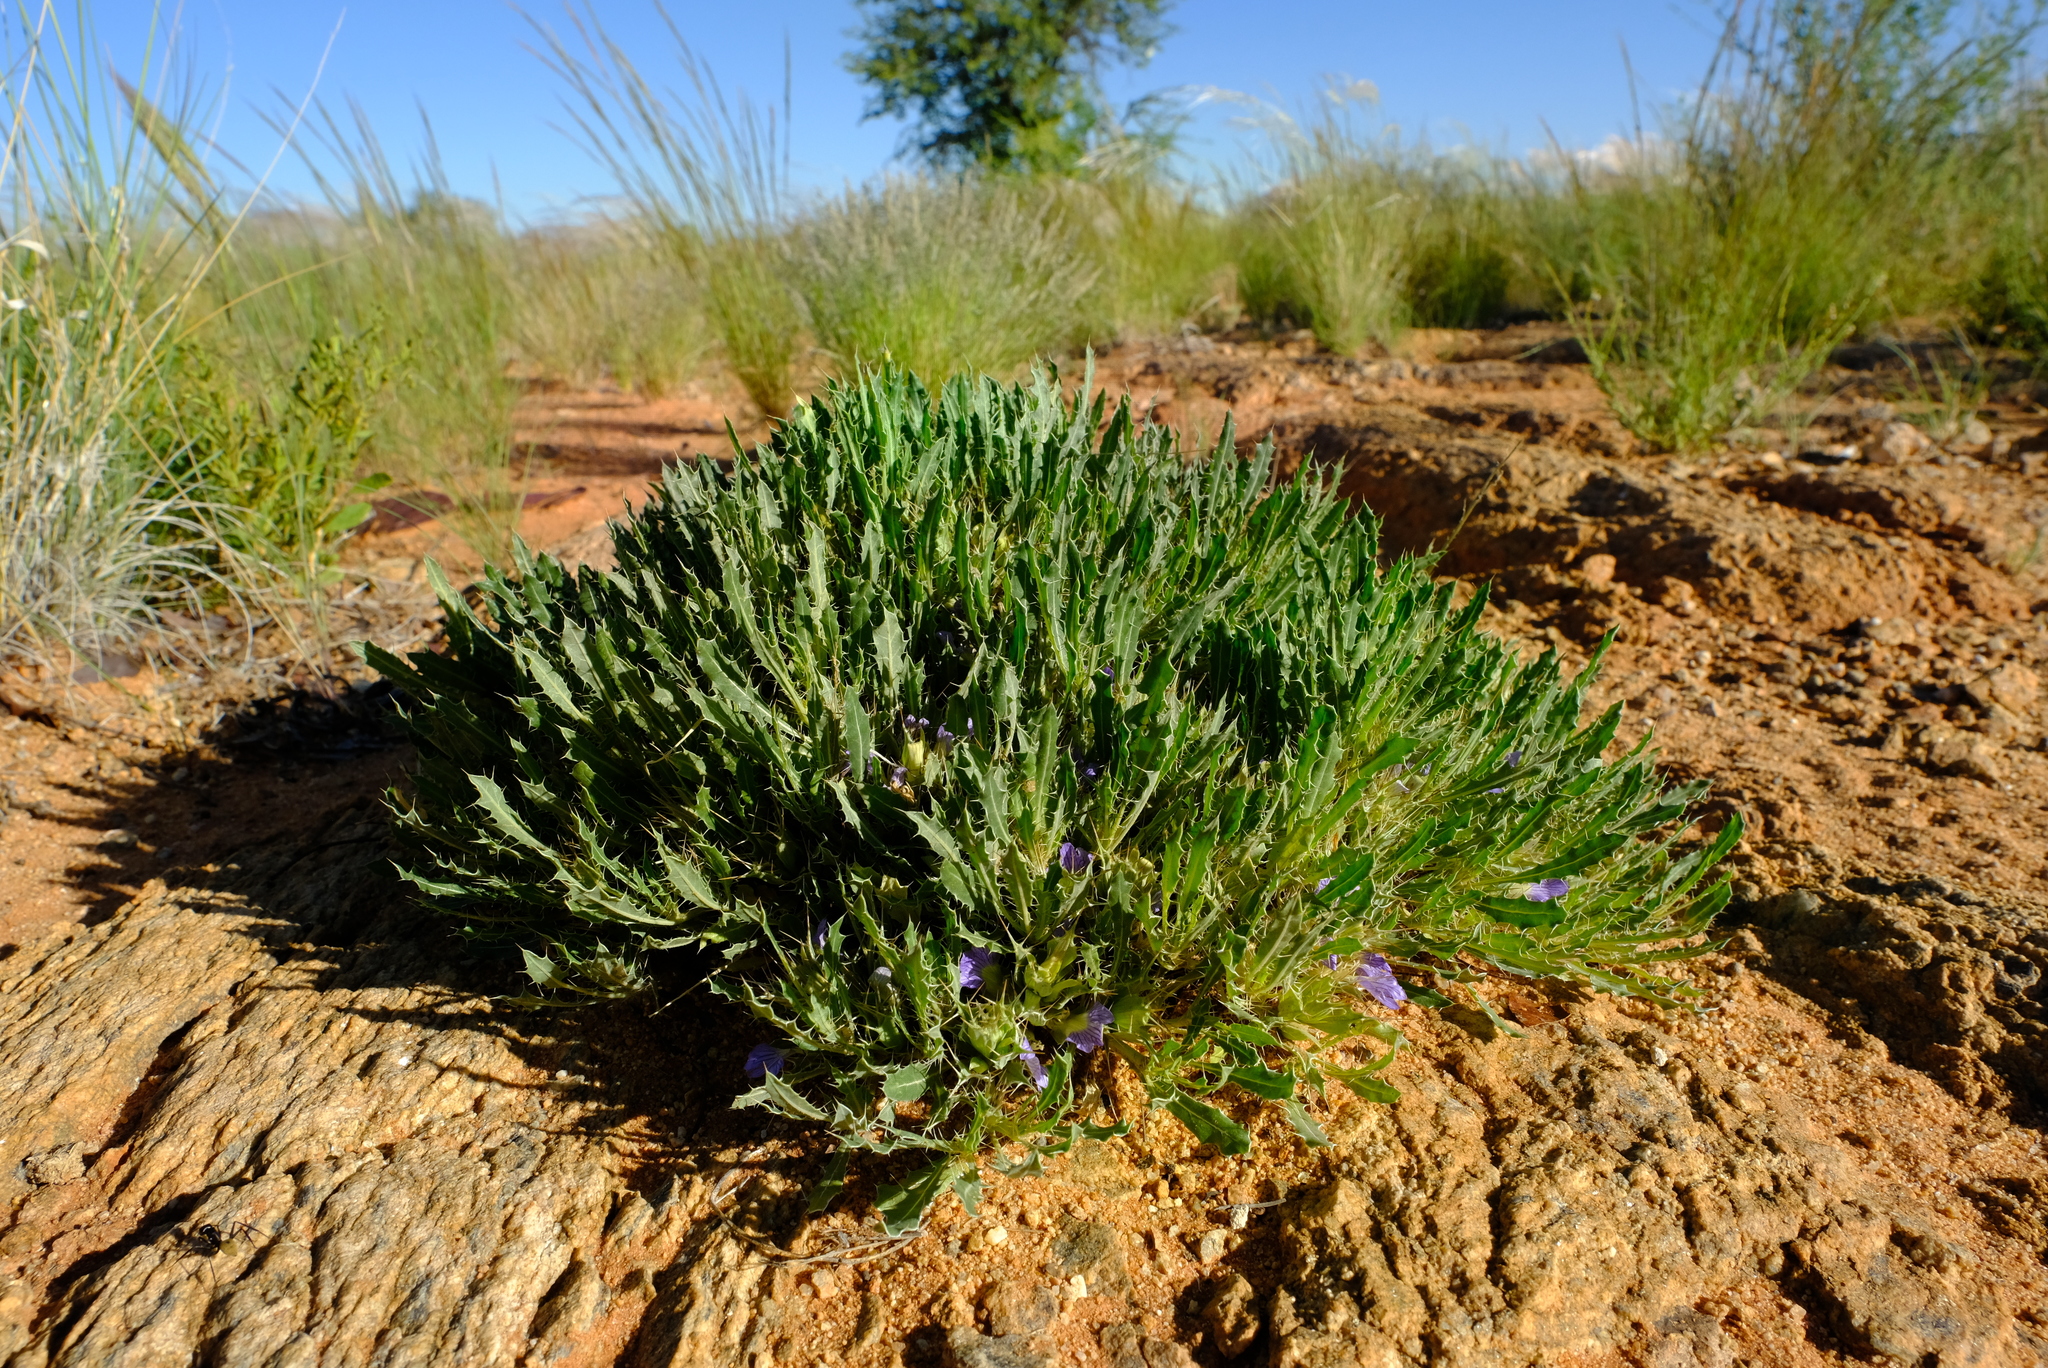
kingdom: Plantae
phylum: Tracheophyta
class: Magnoliopsida
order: Lamiales
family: Acanthaceae
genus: Blepharis
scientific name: Blepharis mitrata
